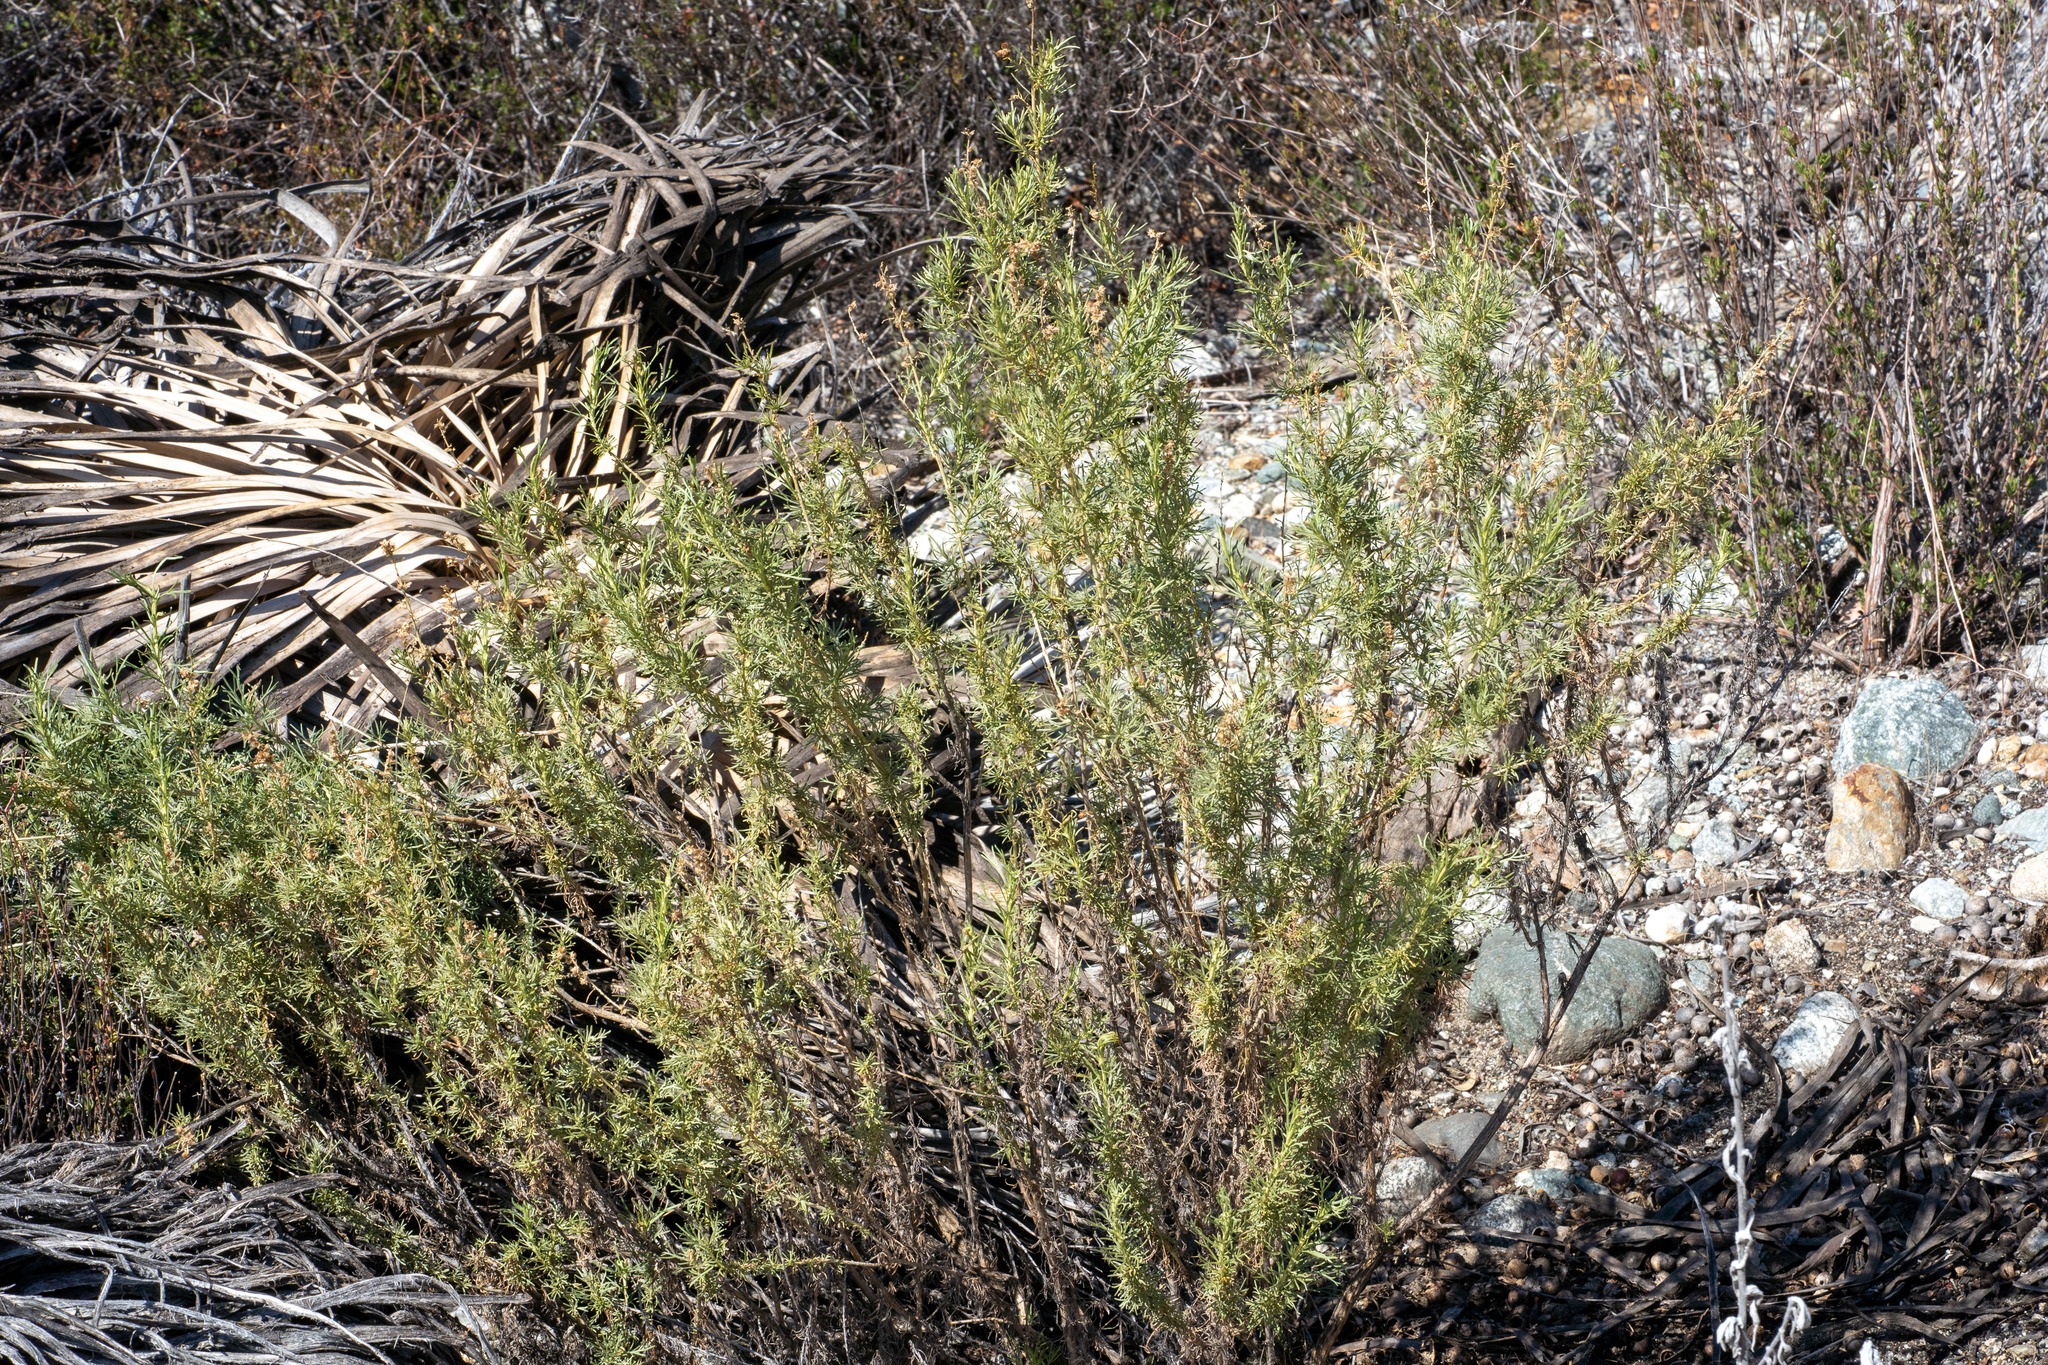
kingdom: Plantae
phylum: Tracheophyta
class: Magnoliopsida
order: Asterales
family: Asteraceae
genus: Artemisia
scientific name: Artemisia californica
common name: California sagebrush
